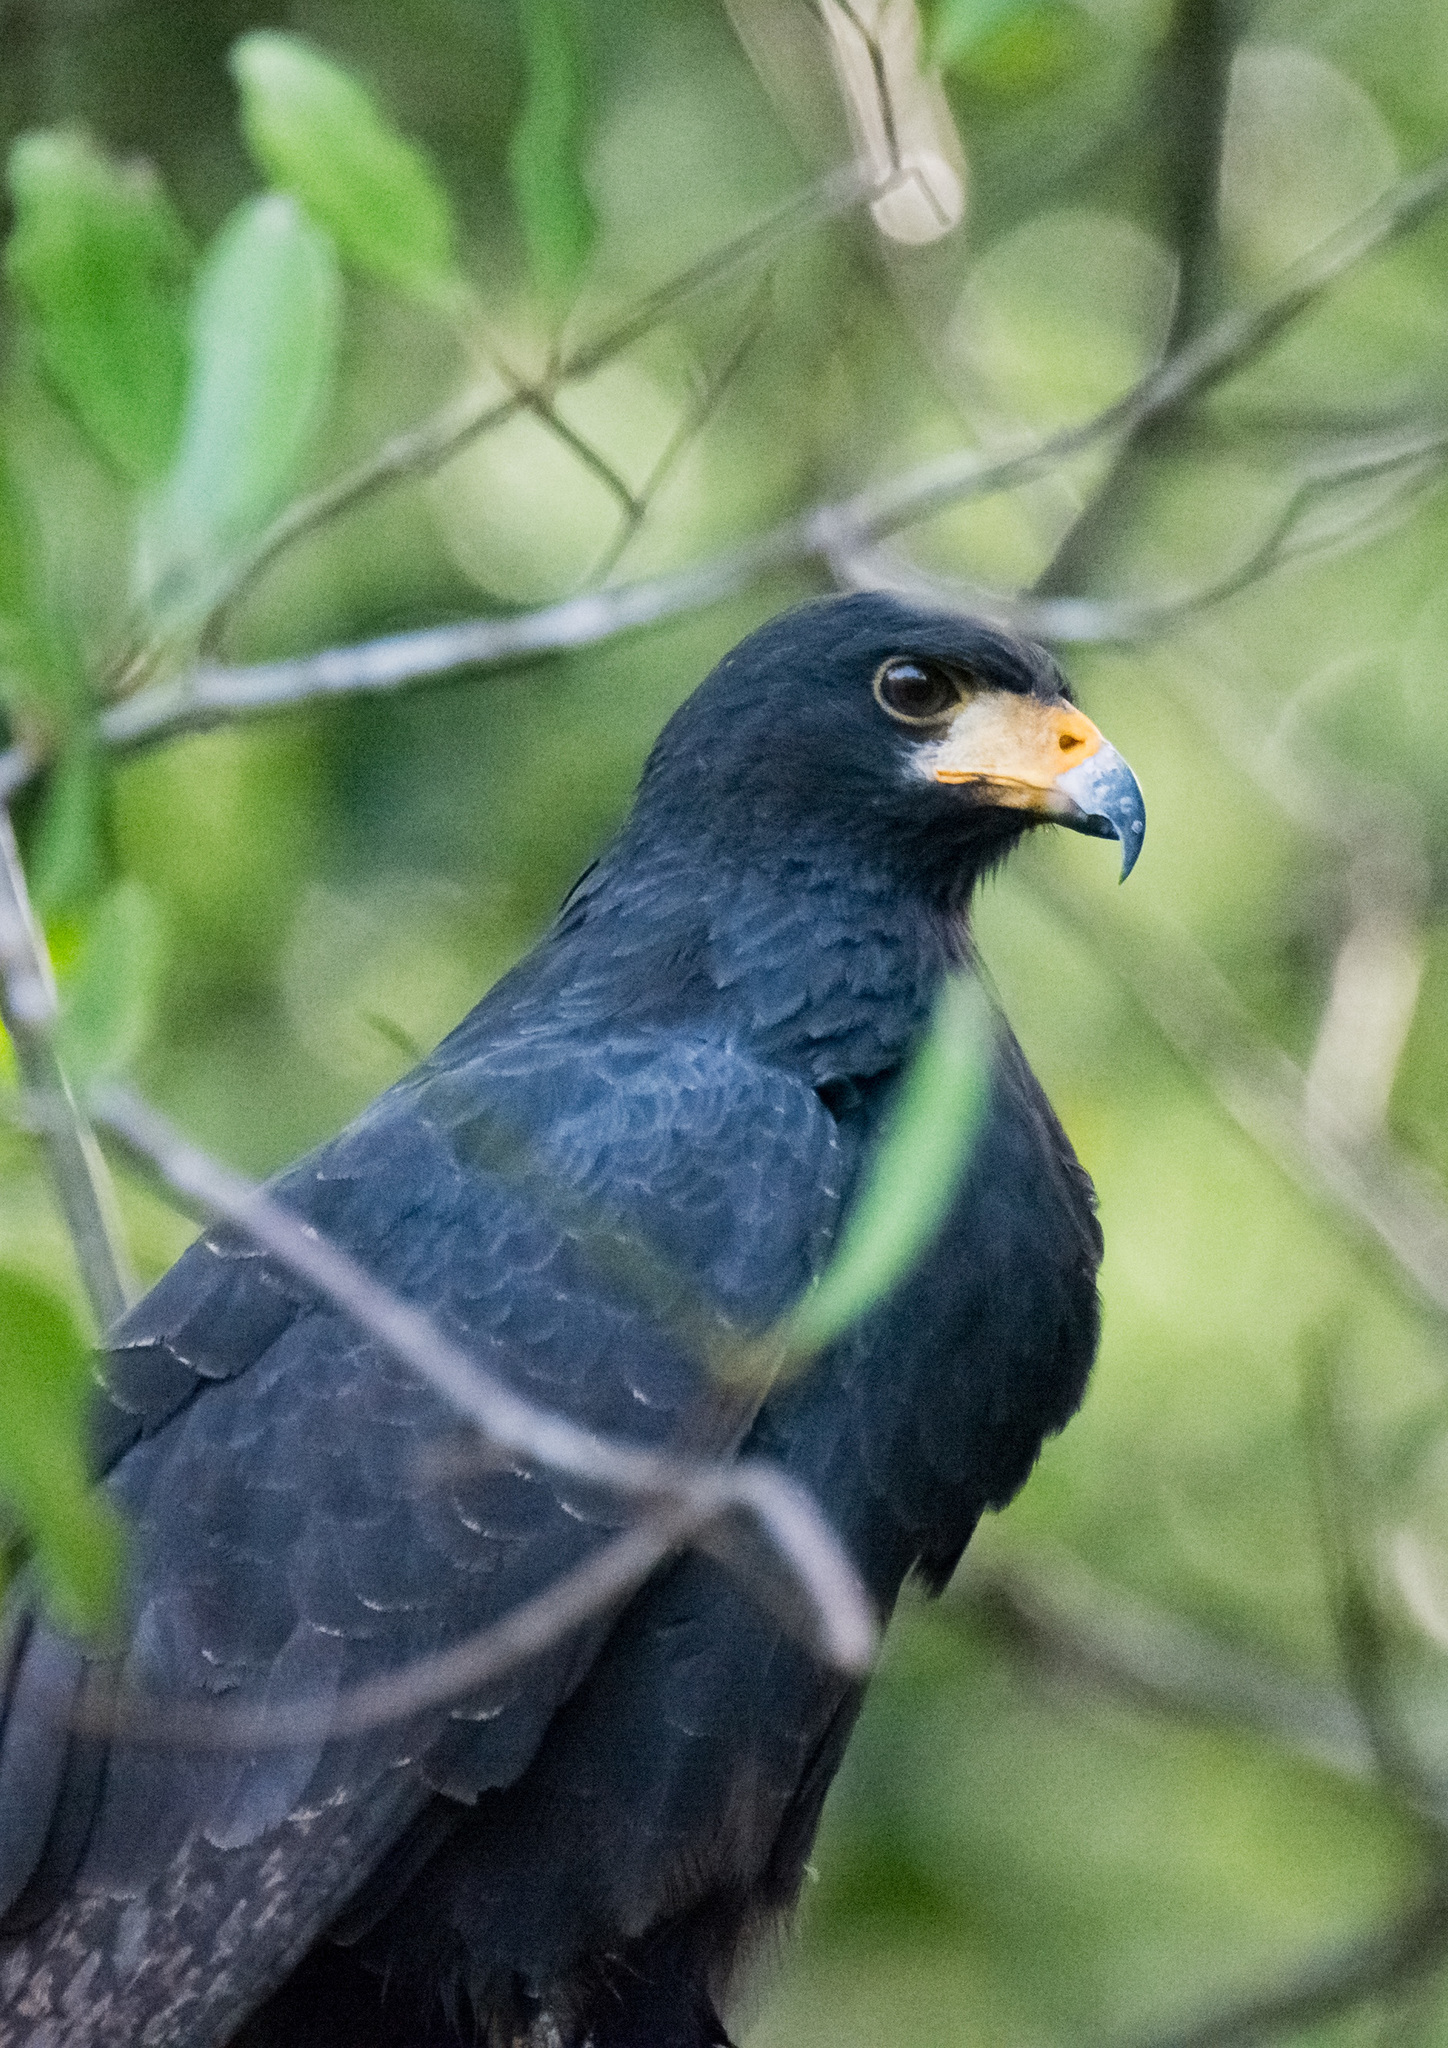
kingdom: Animalia
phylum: Chordata
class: Aves
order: Accipitriformes
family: Accipitridae
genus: Buteogallus
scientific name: Buteogallus anthracinus
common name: Common black hawk
